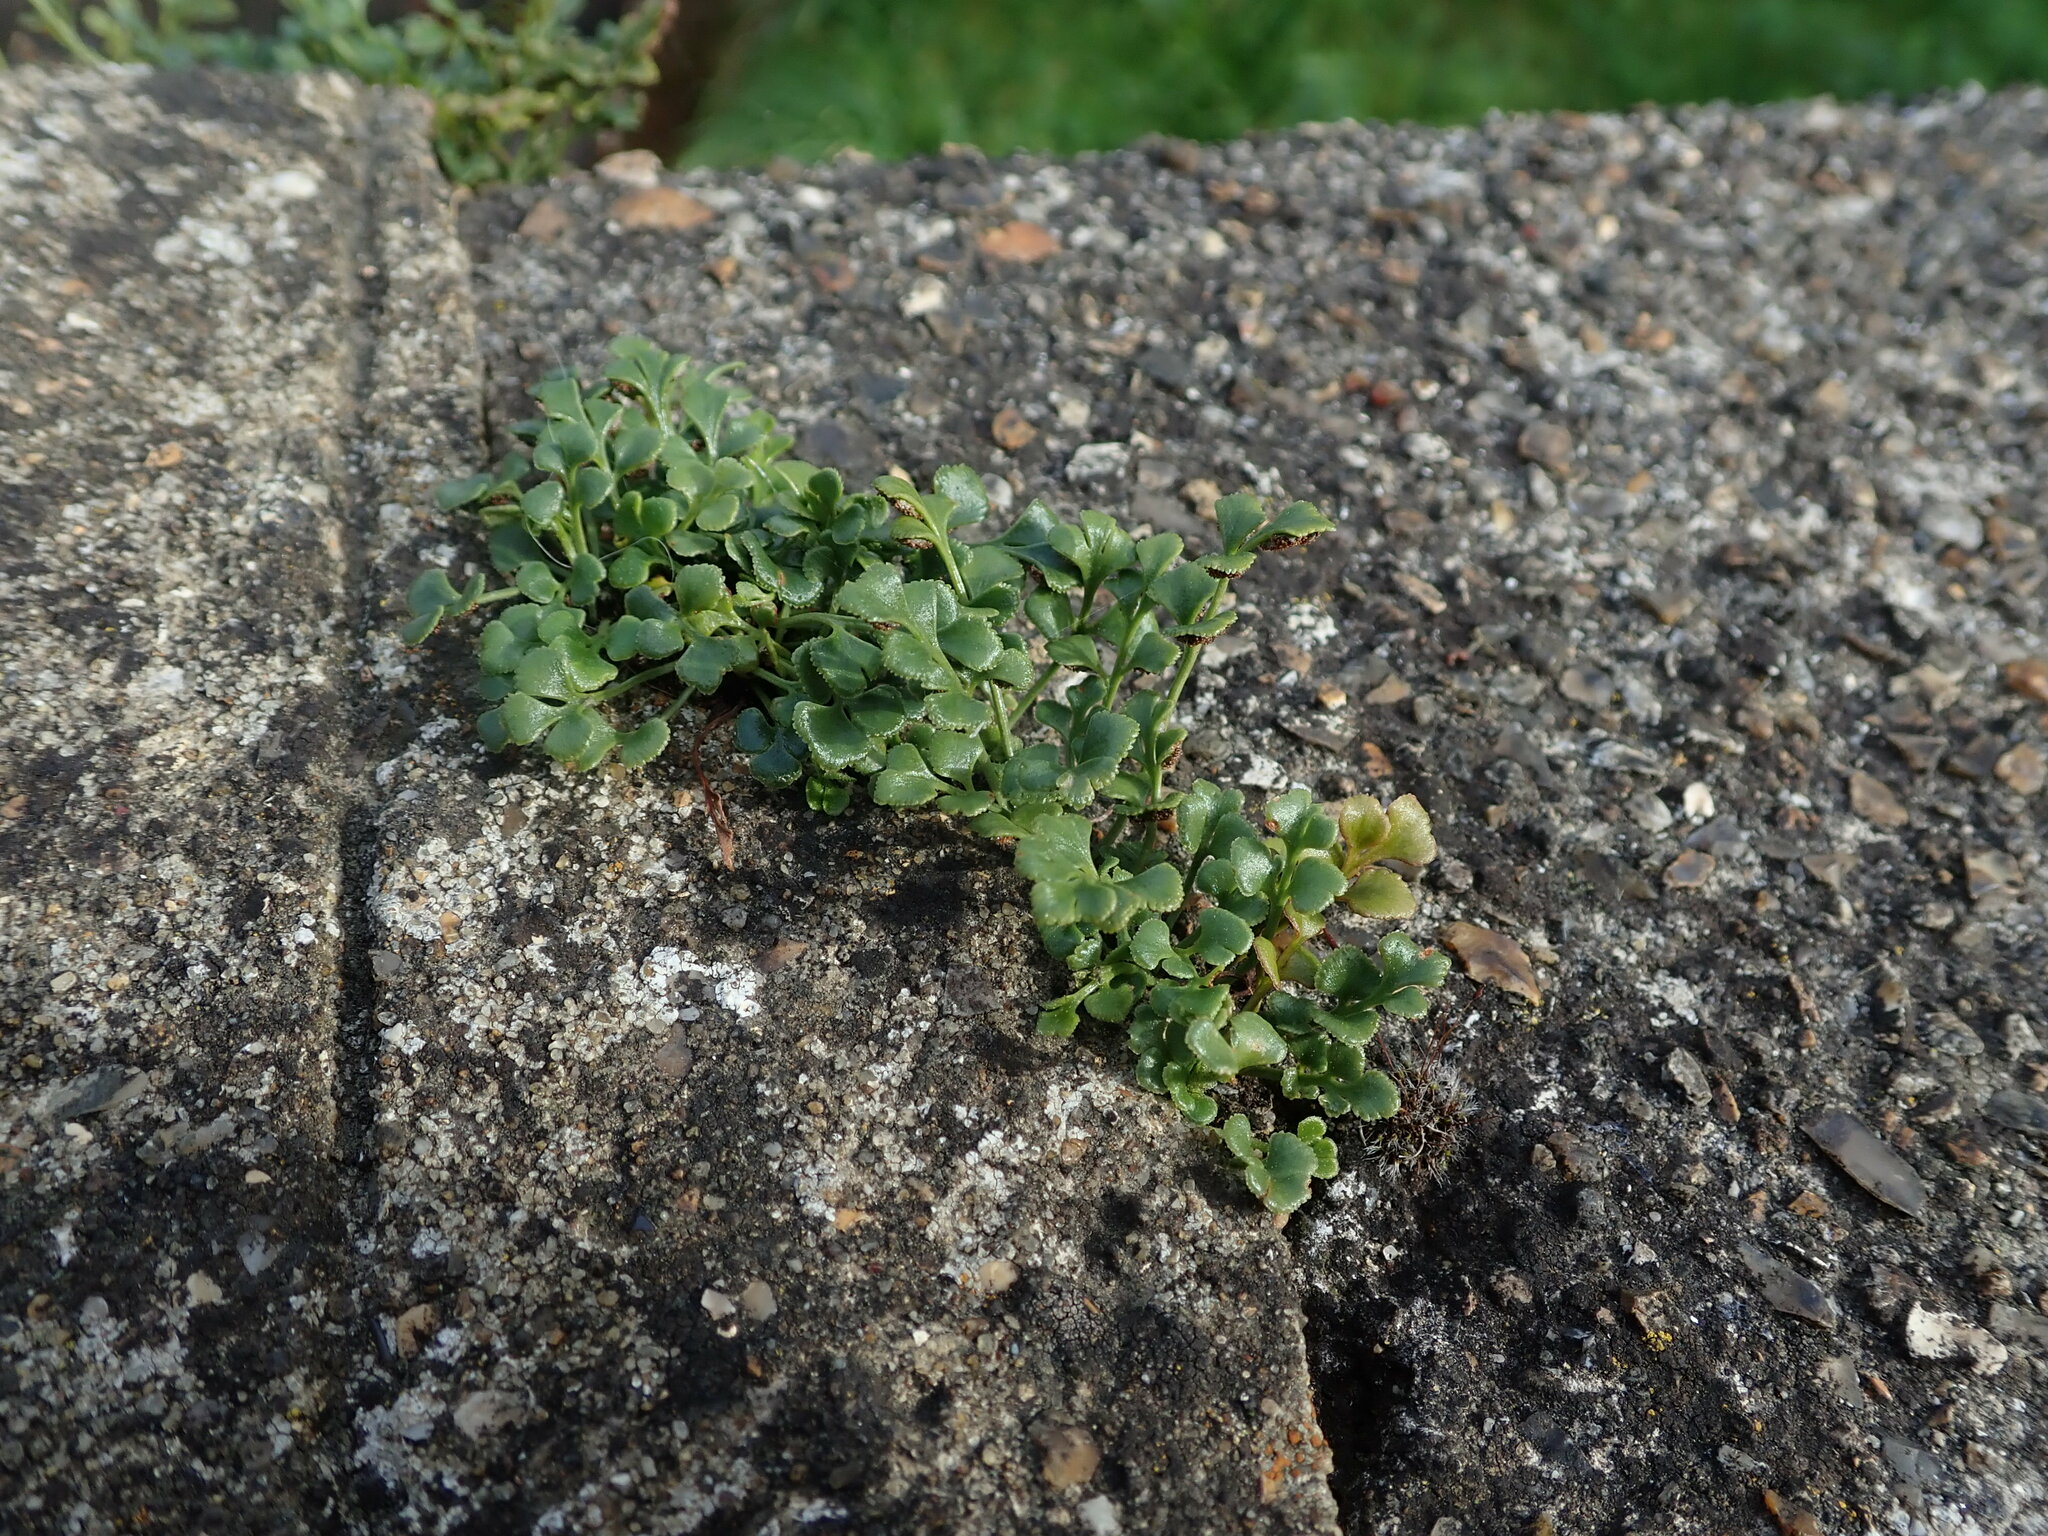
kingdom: Plantae
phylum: Tracheophyta
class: Polypodiopsida
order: Polypodiales
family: Aspleniaceae
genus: Asplenium
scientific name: Asplenium ruta-muraria
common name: Wall-rue
